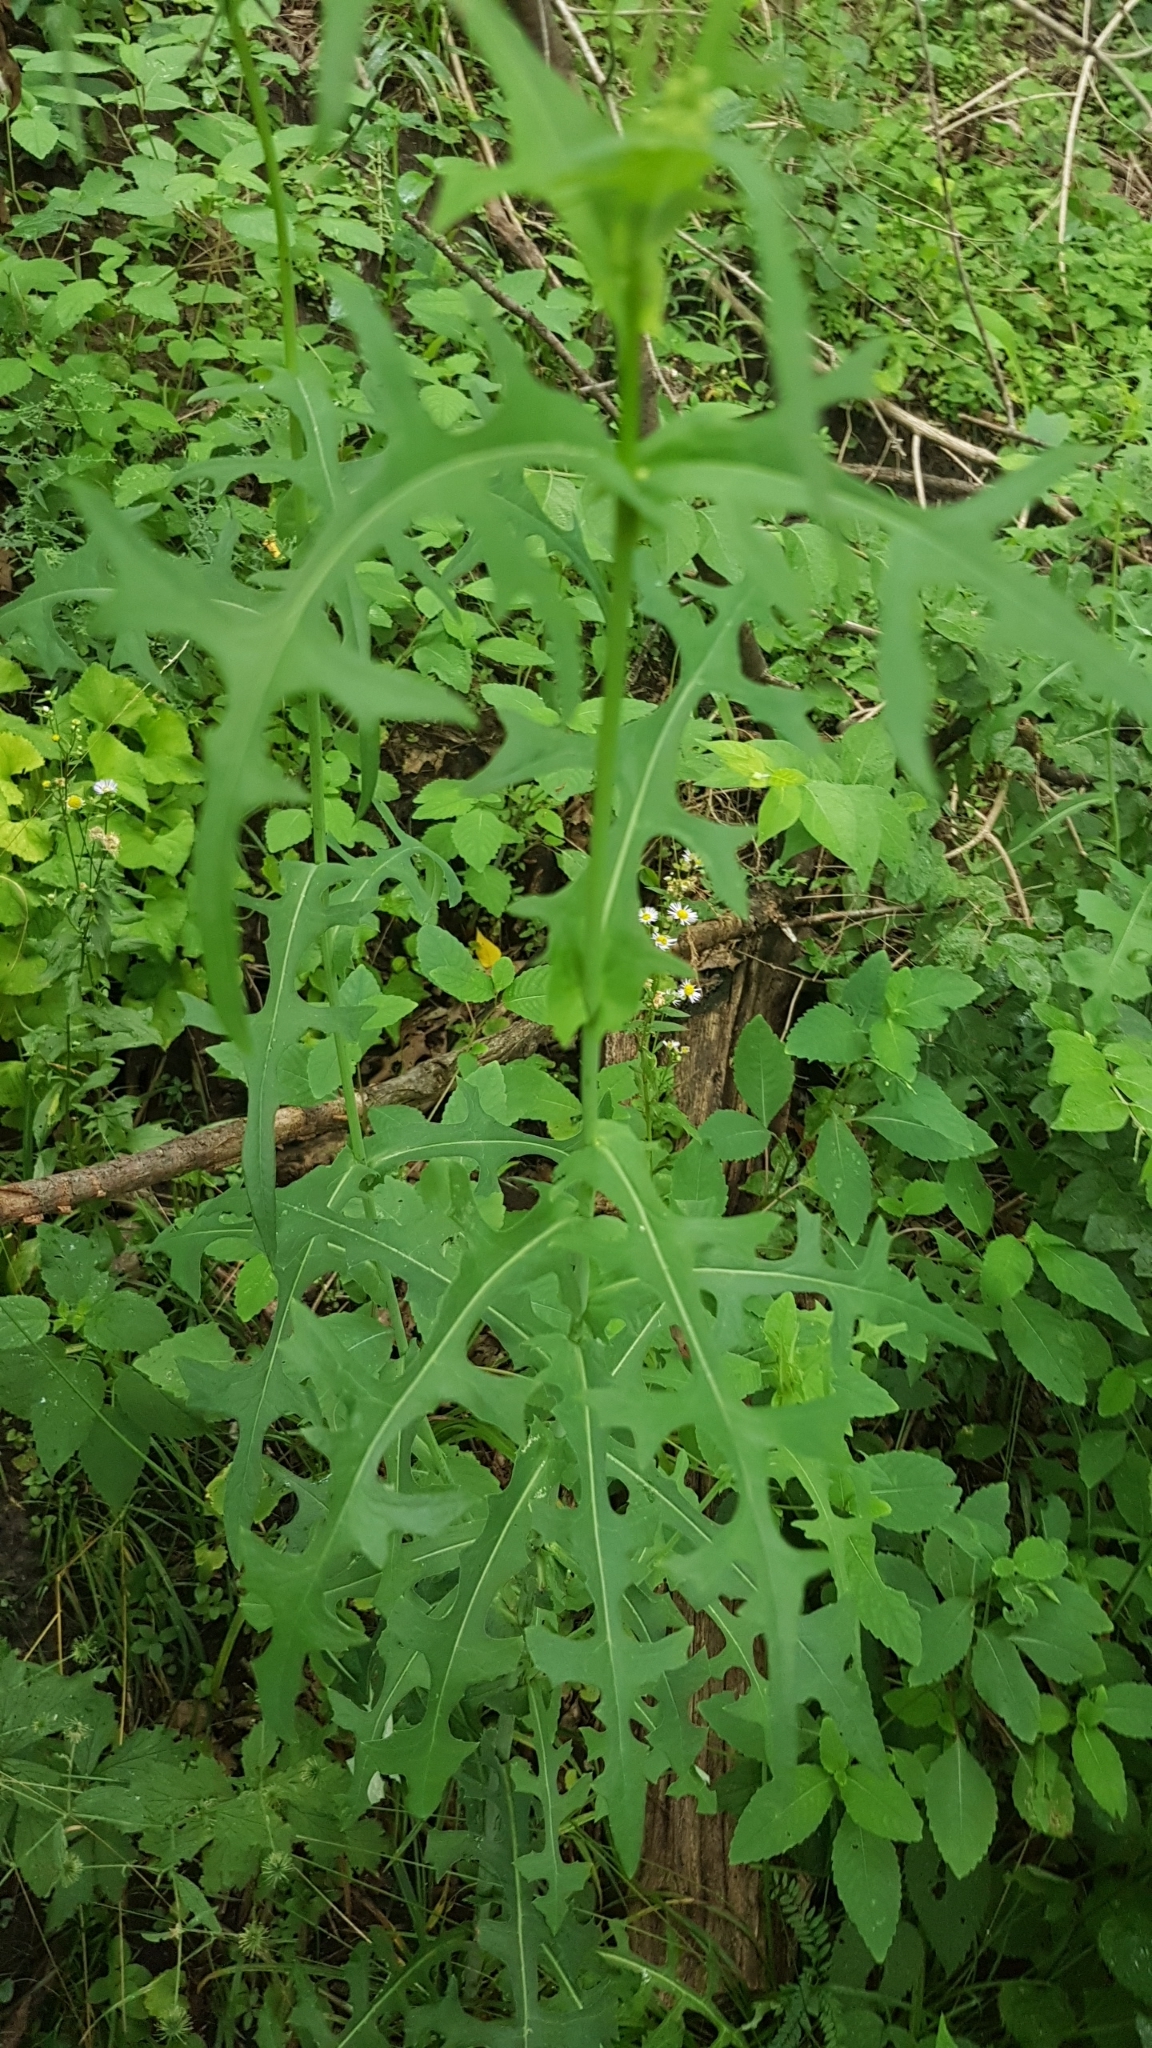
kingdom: Plantae
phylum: Tracheophyta
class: Magnoliopsida
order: Asterales
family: Asteraceae
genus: Lactuca
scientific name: Lactuca canadensis
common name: Canada lettuce
